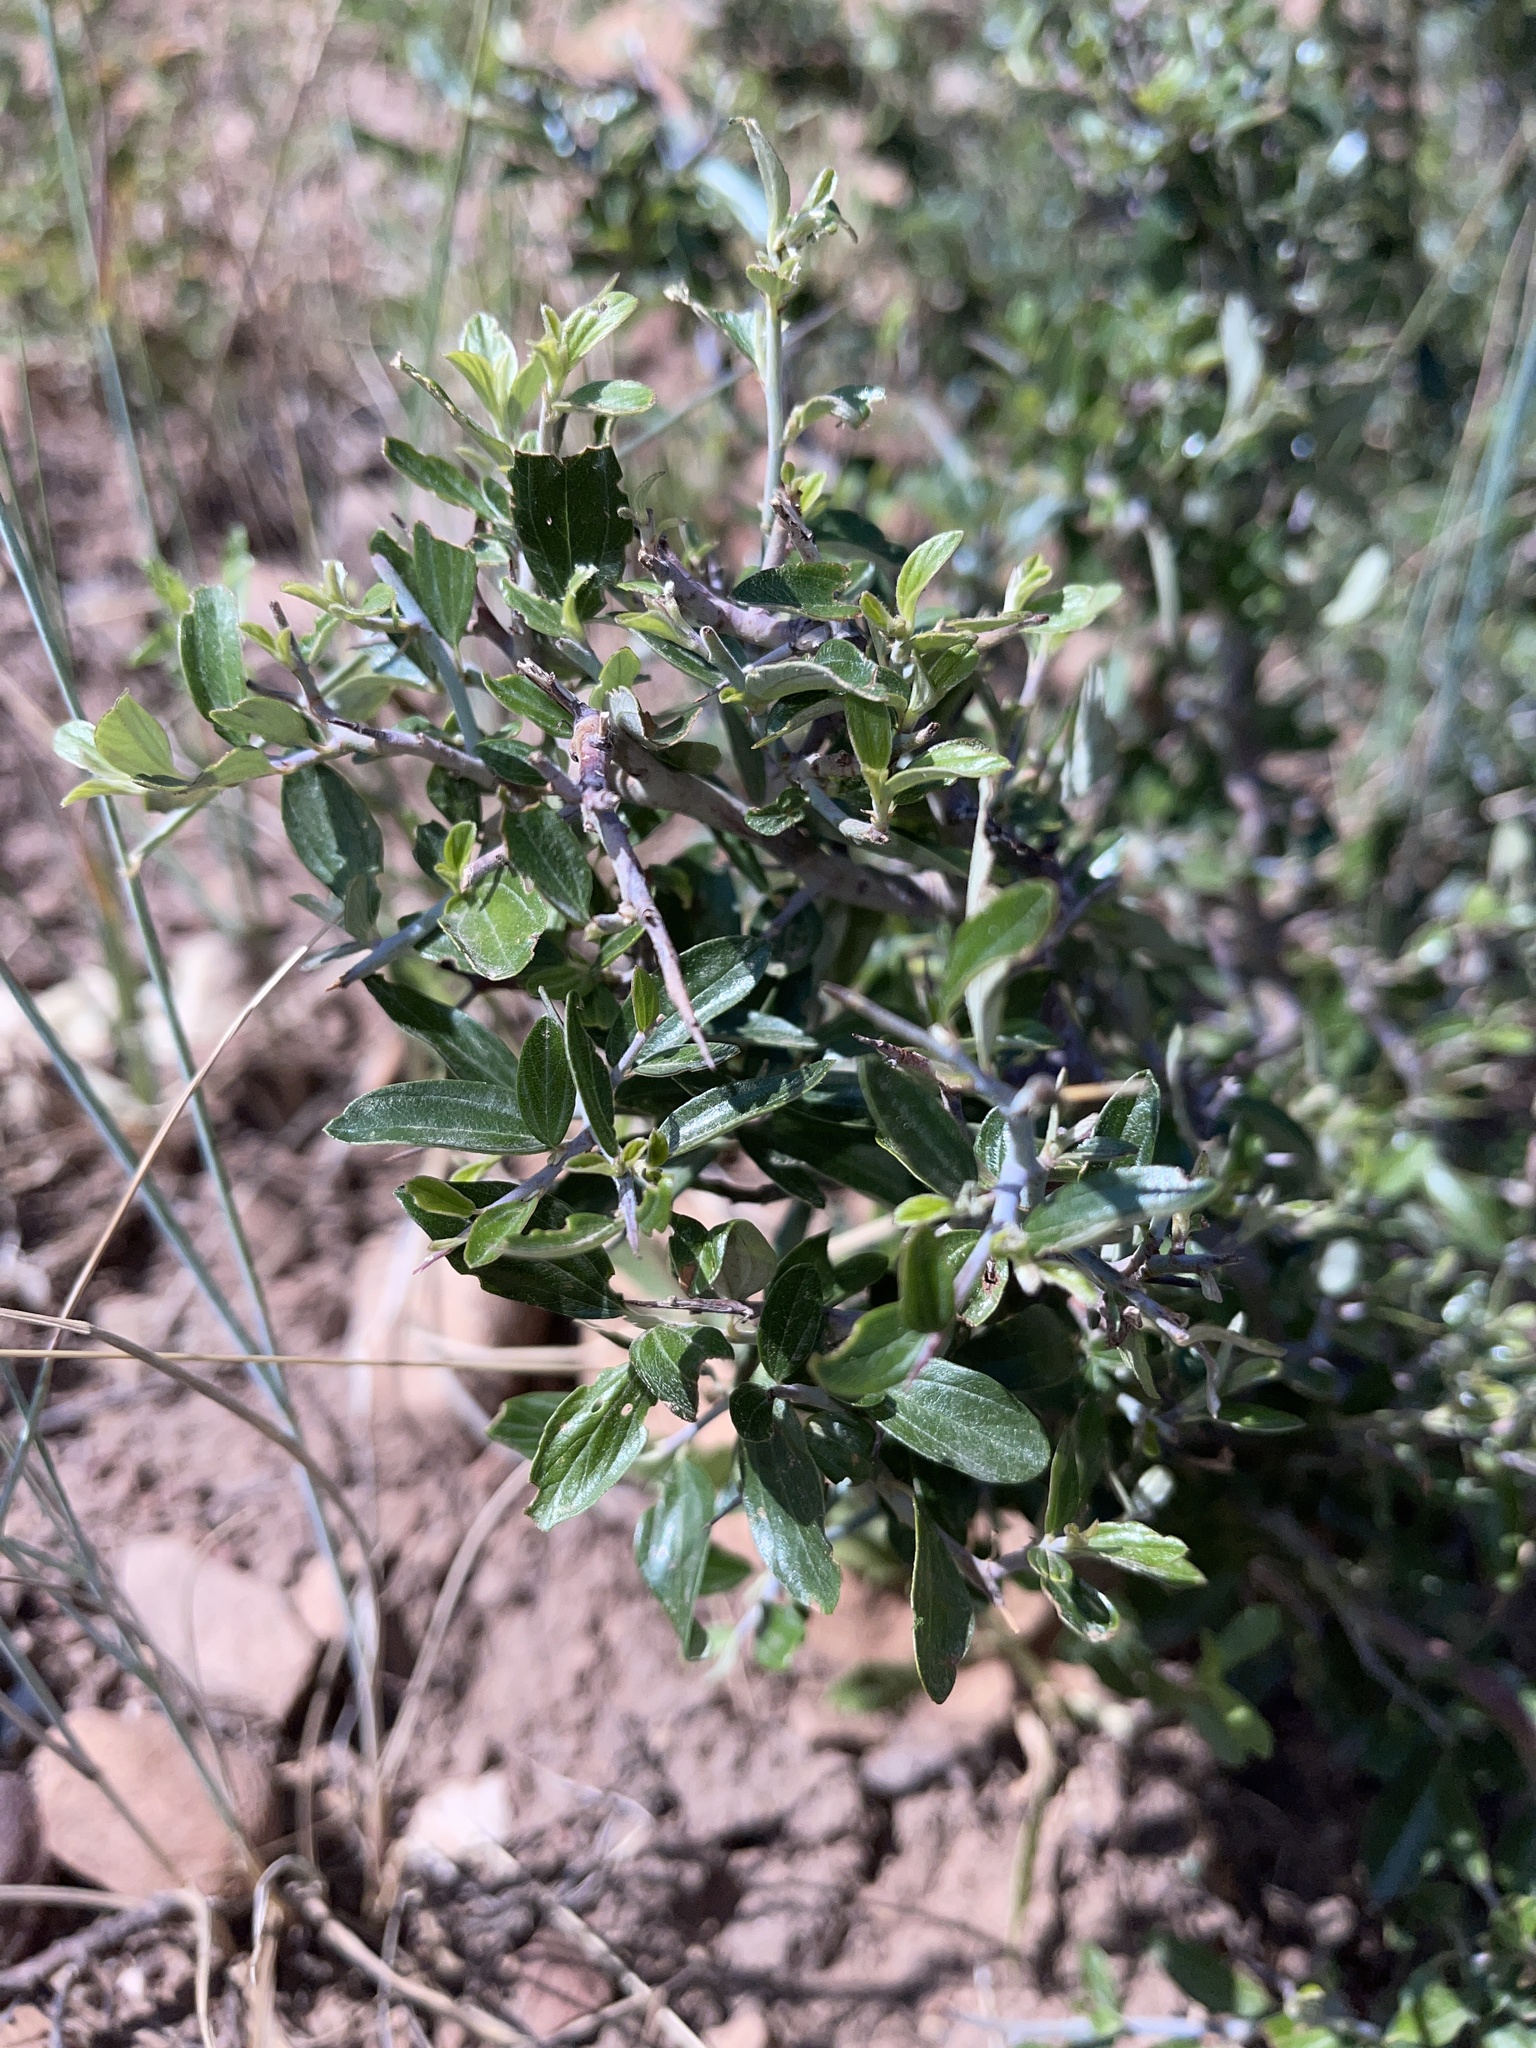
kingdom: Plantae
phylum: Tracheophyta
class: Magnoliopsida
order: Rosales
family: Rhamnaceae
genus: Ceanothus
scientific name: Ceanothus fendleri
